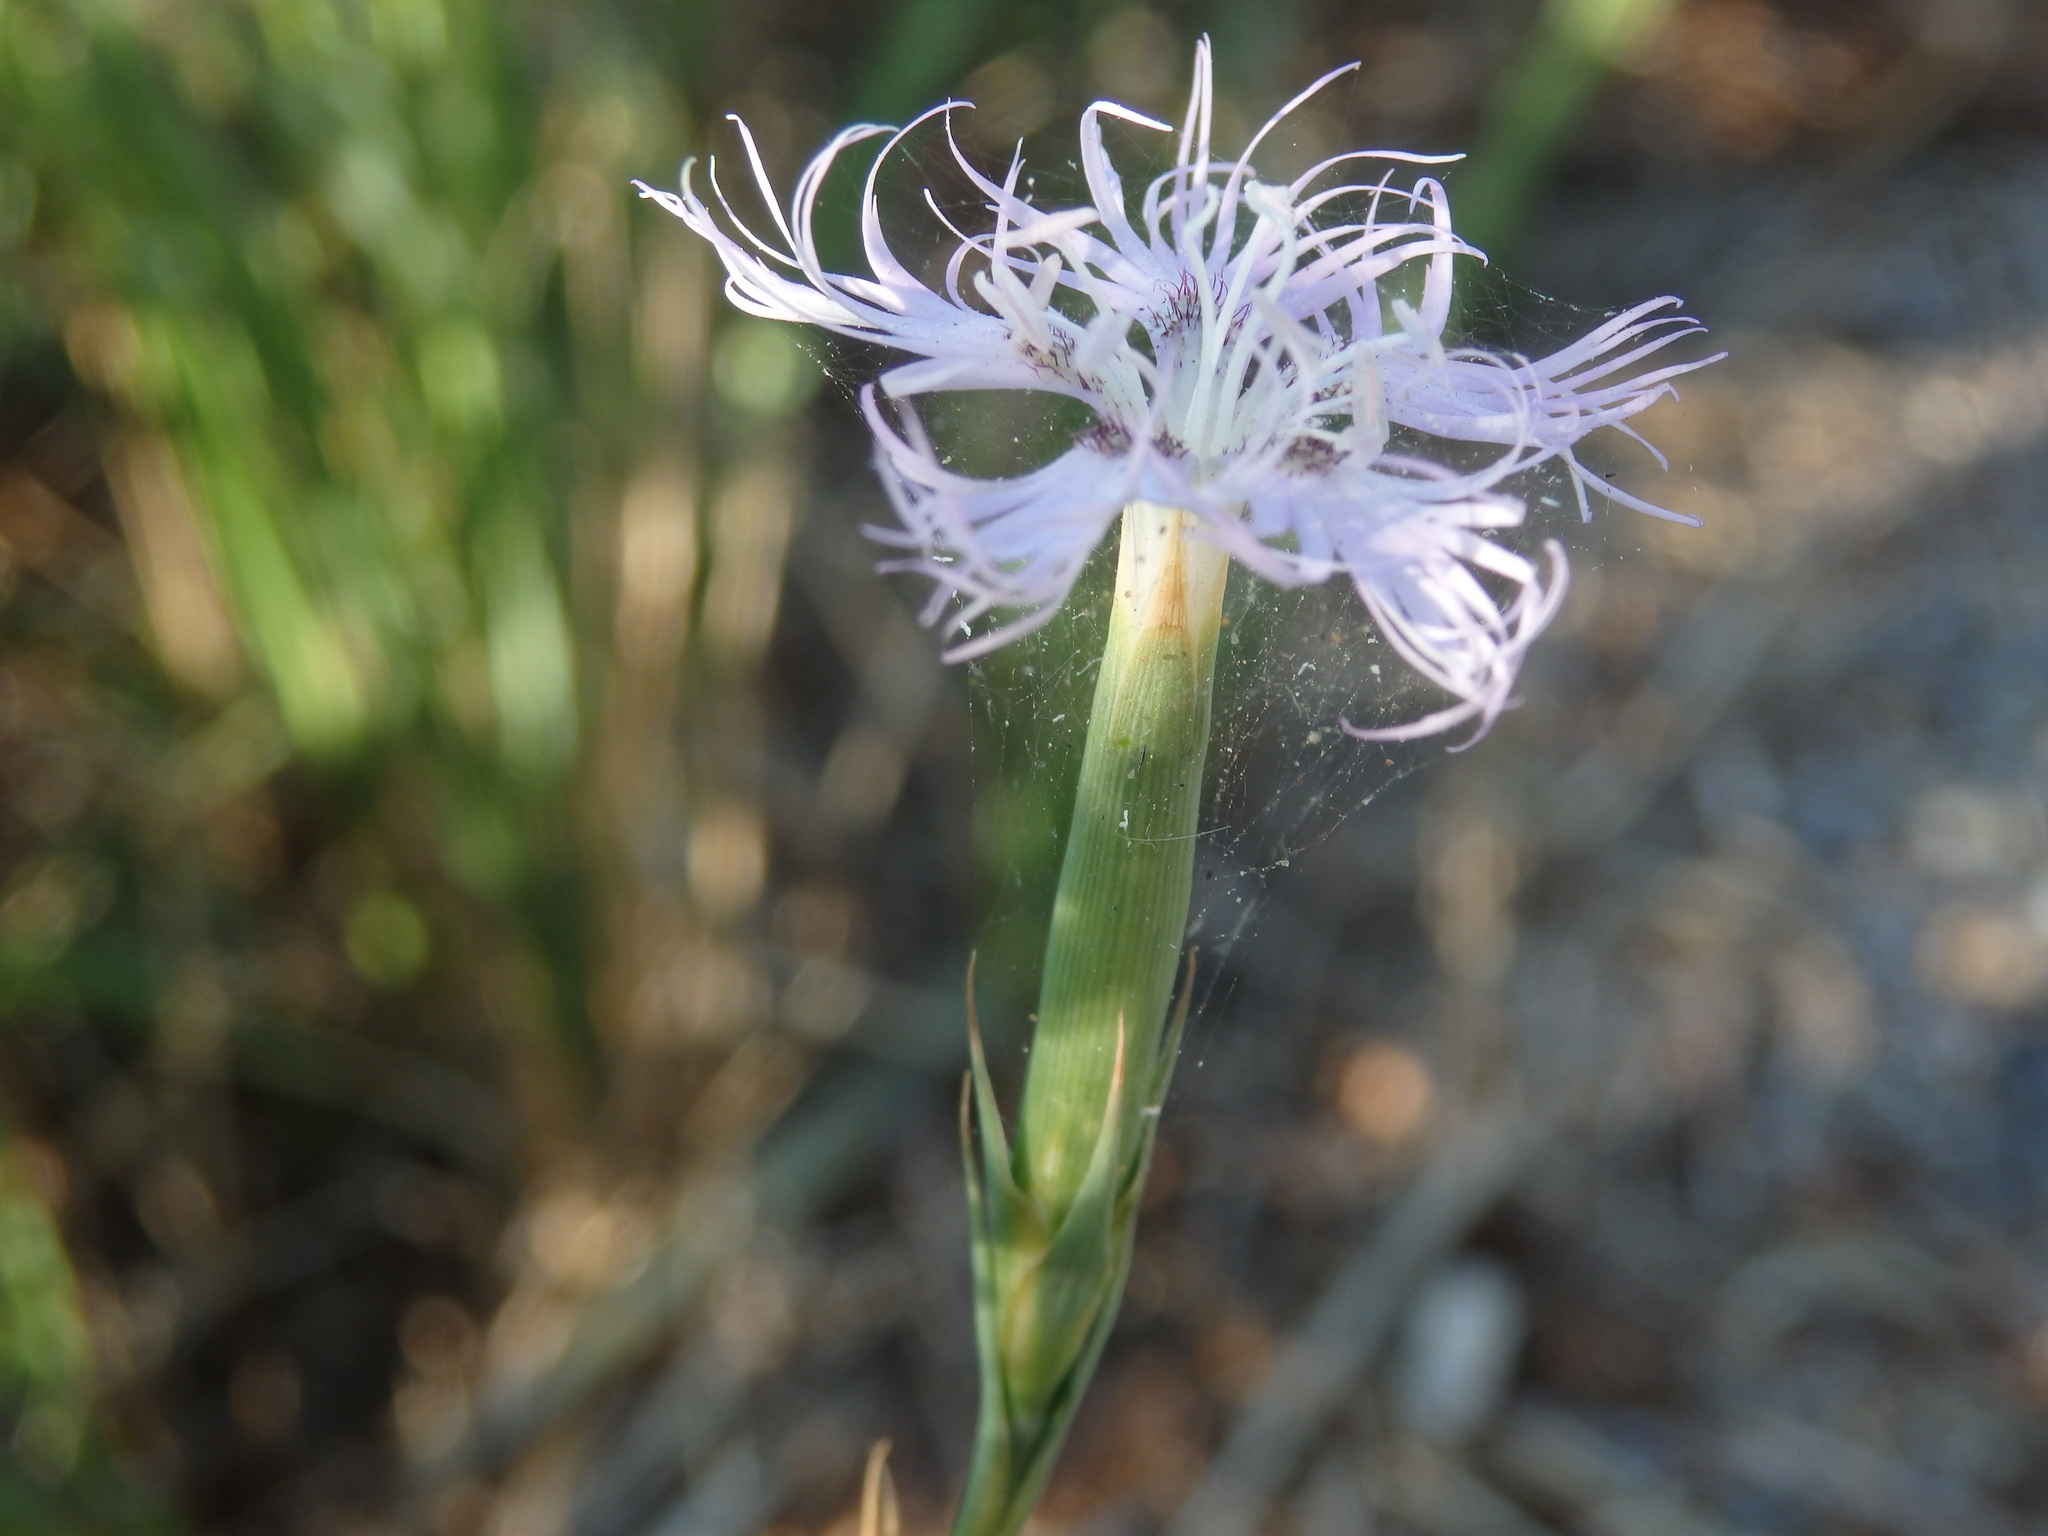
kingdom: Plantae
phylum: Tracheophyta
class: Magnoliopsida
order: Caryophyllales
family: Caryophyllaceae
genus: Dianthus
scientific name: Dianthus hyssopifolius
